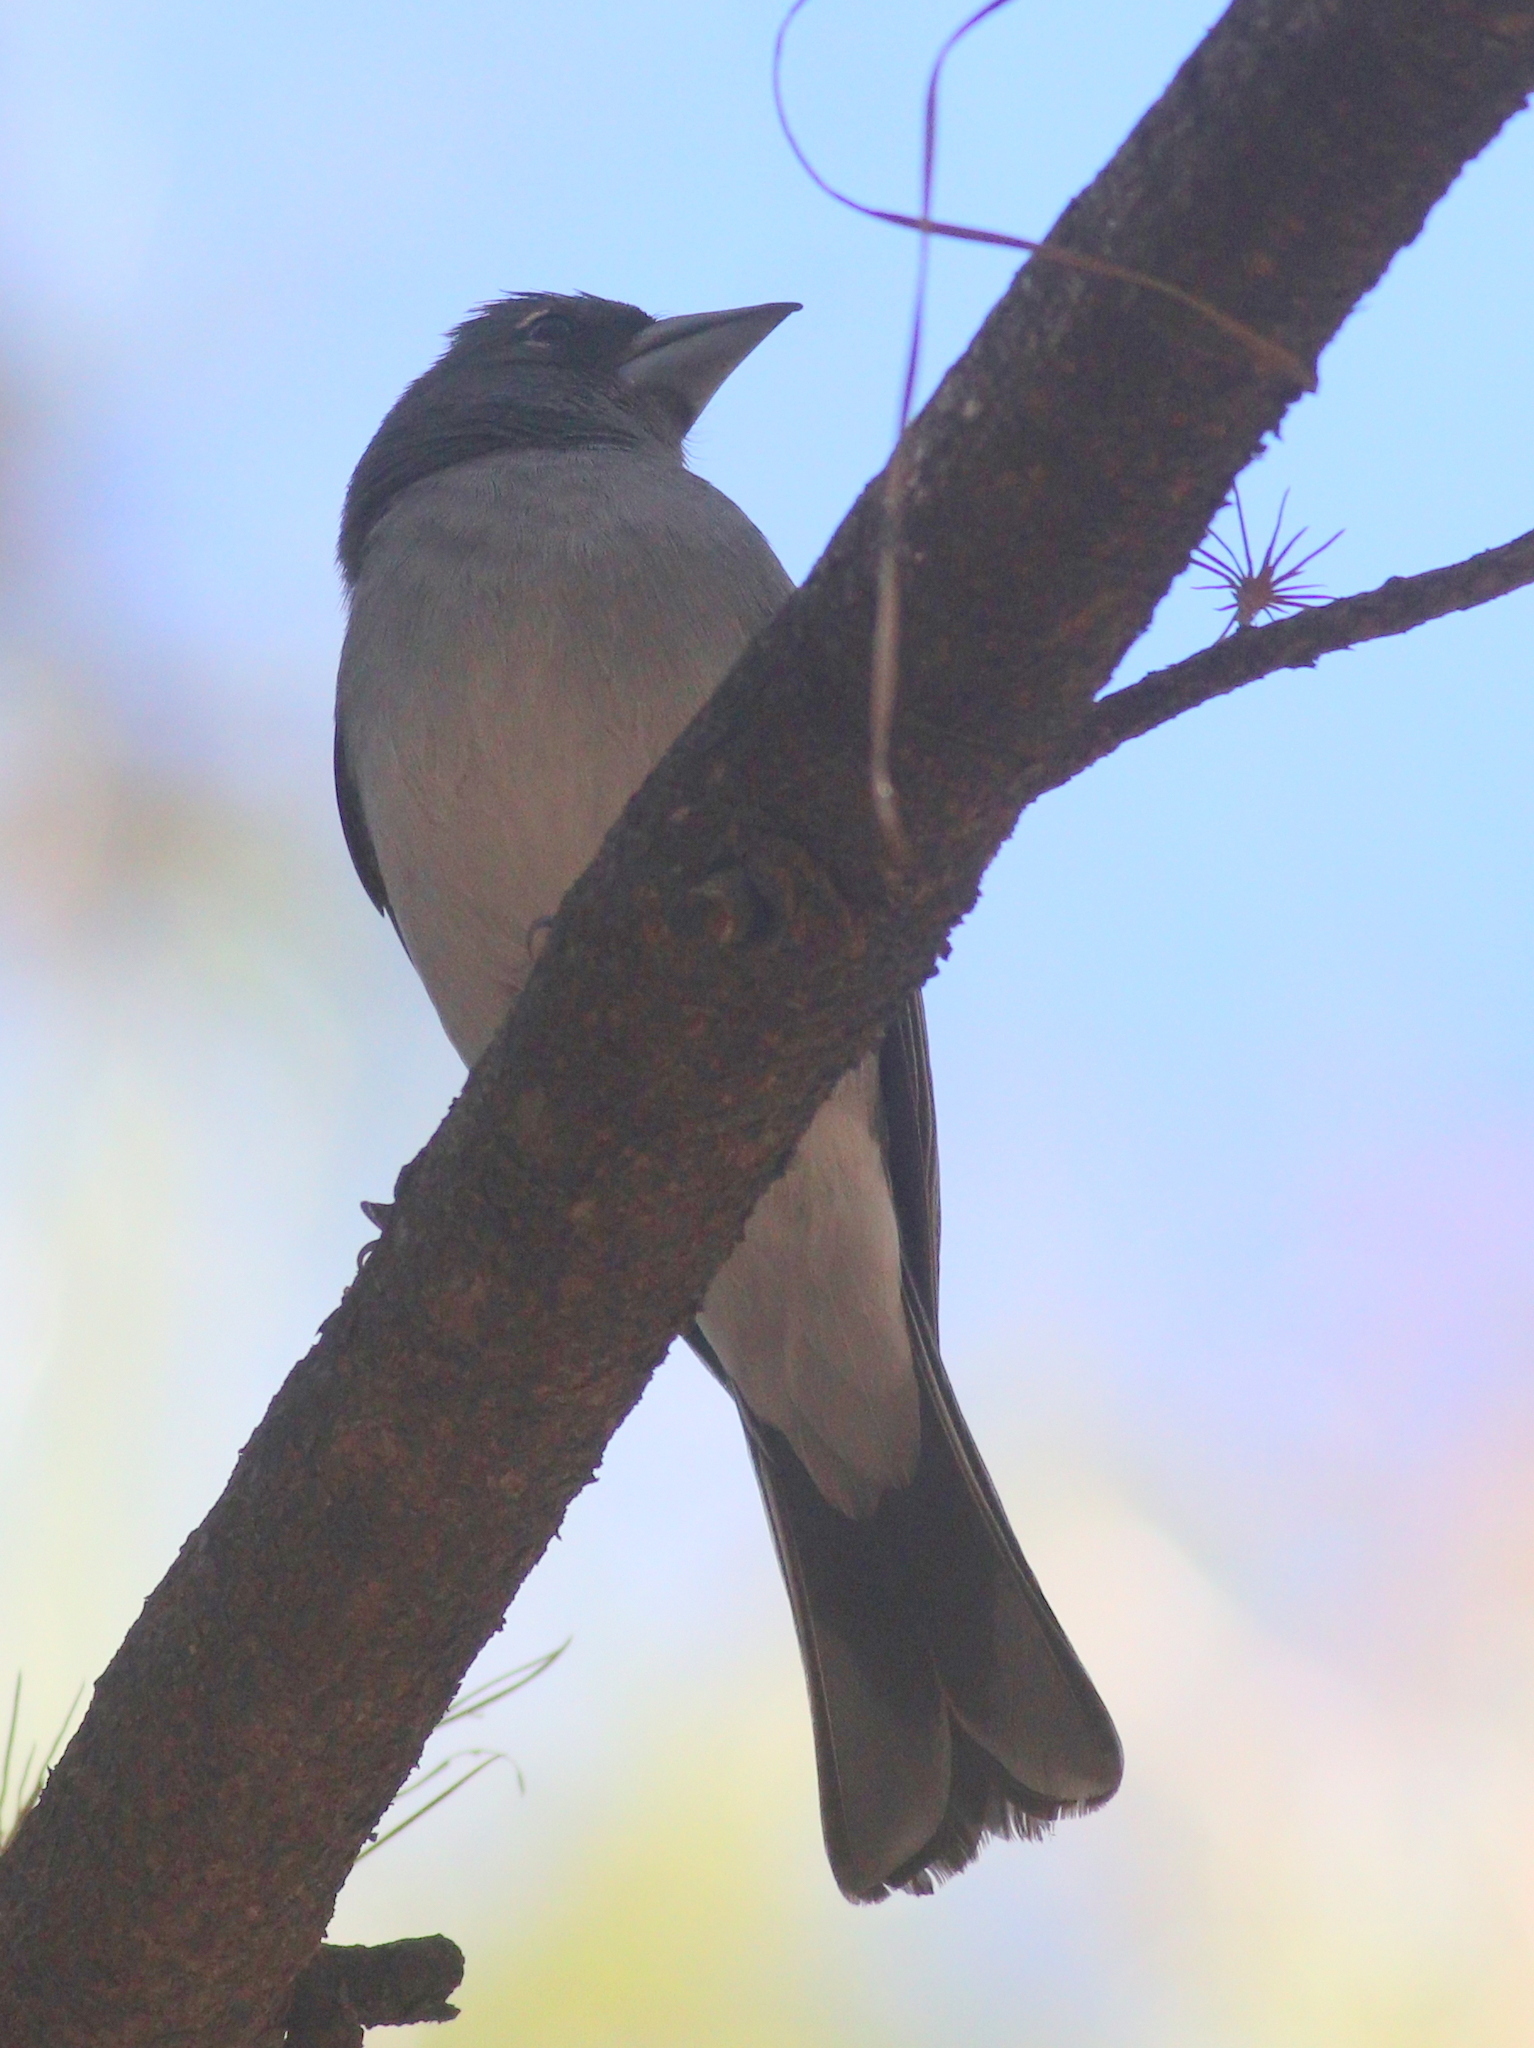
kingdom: Animalia
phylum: Chordata
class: Aves
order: Passeriformes
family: Fringillidae
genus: Fringilla
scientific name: Fringilla polatzeki
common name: Gran canaria blue chaffinch
